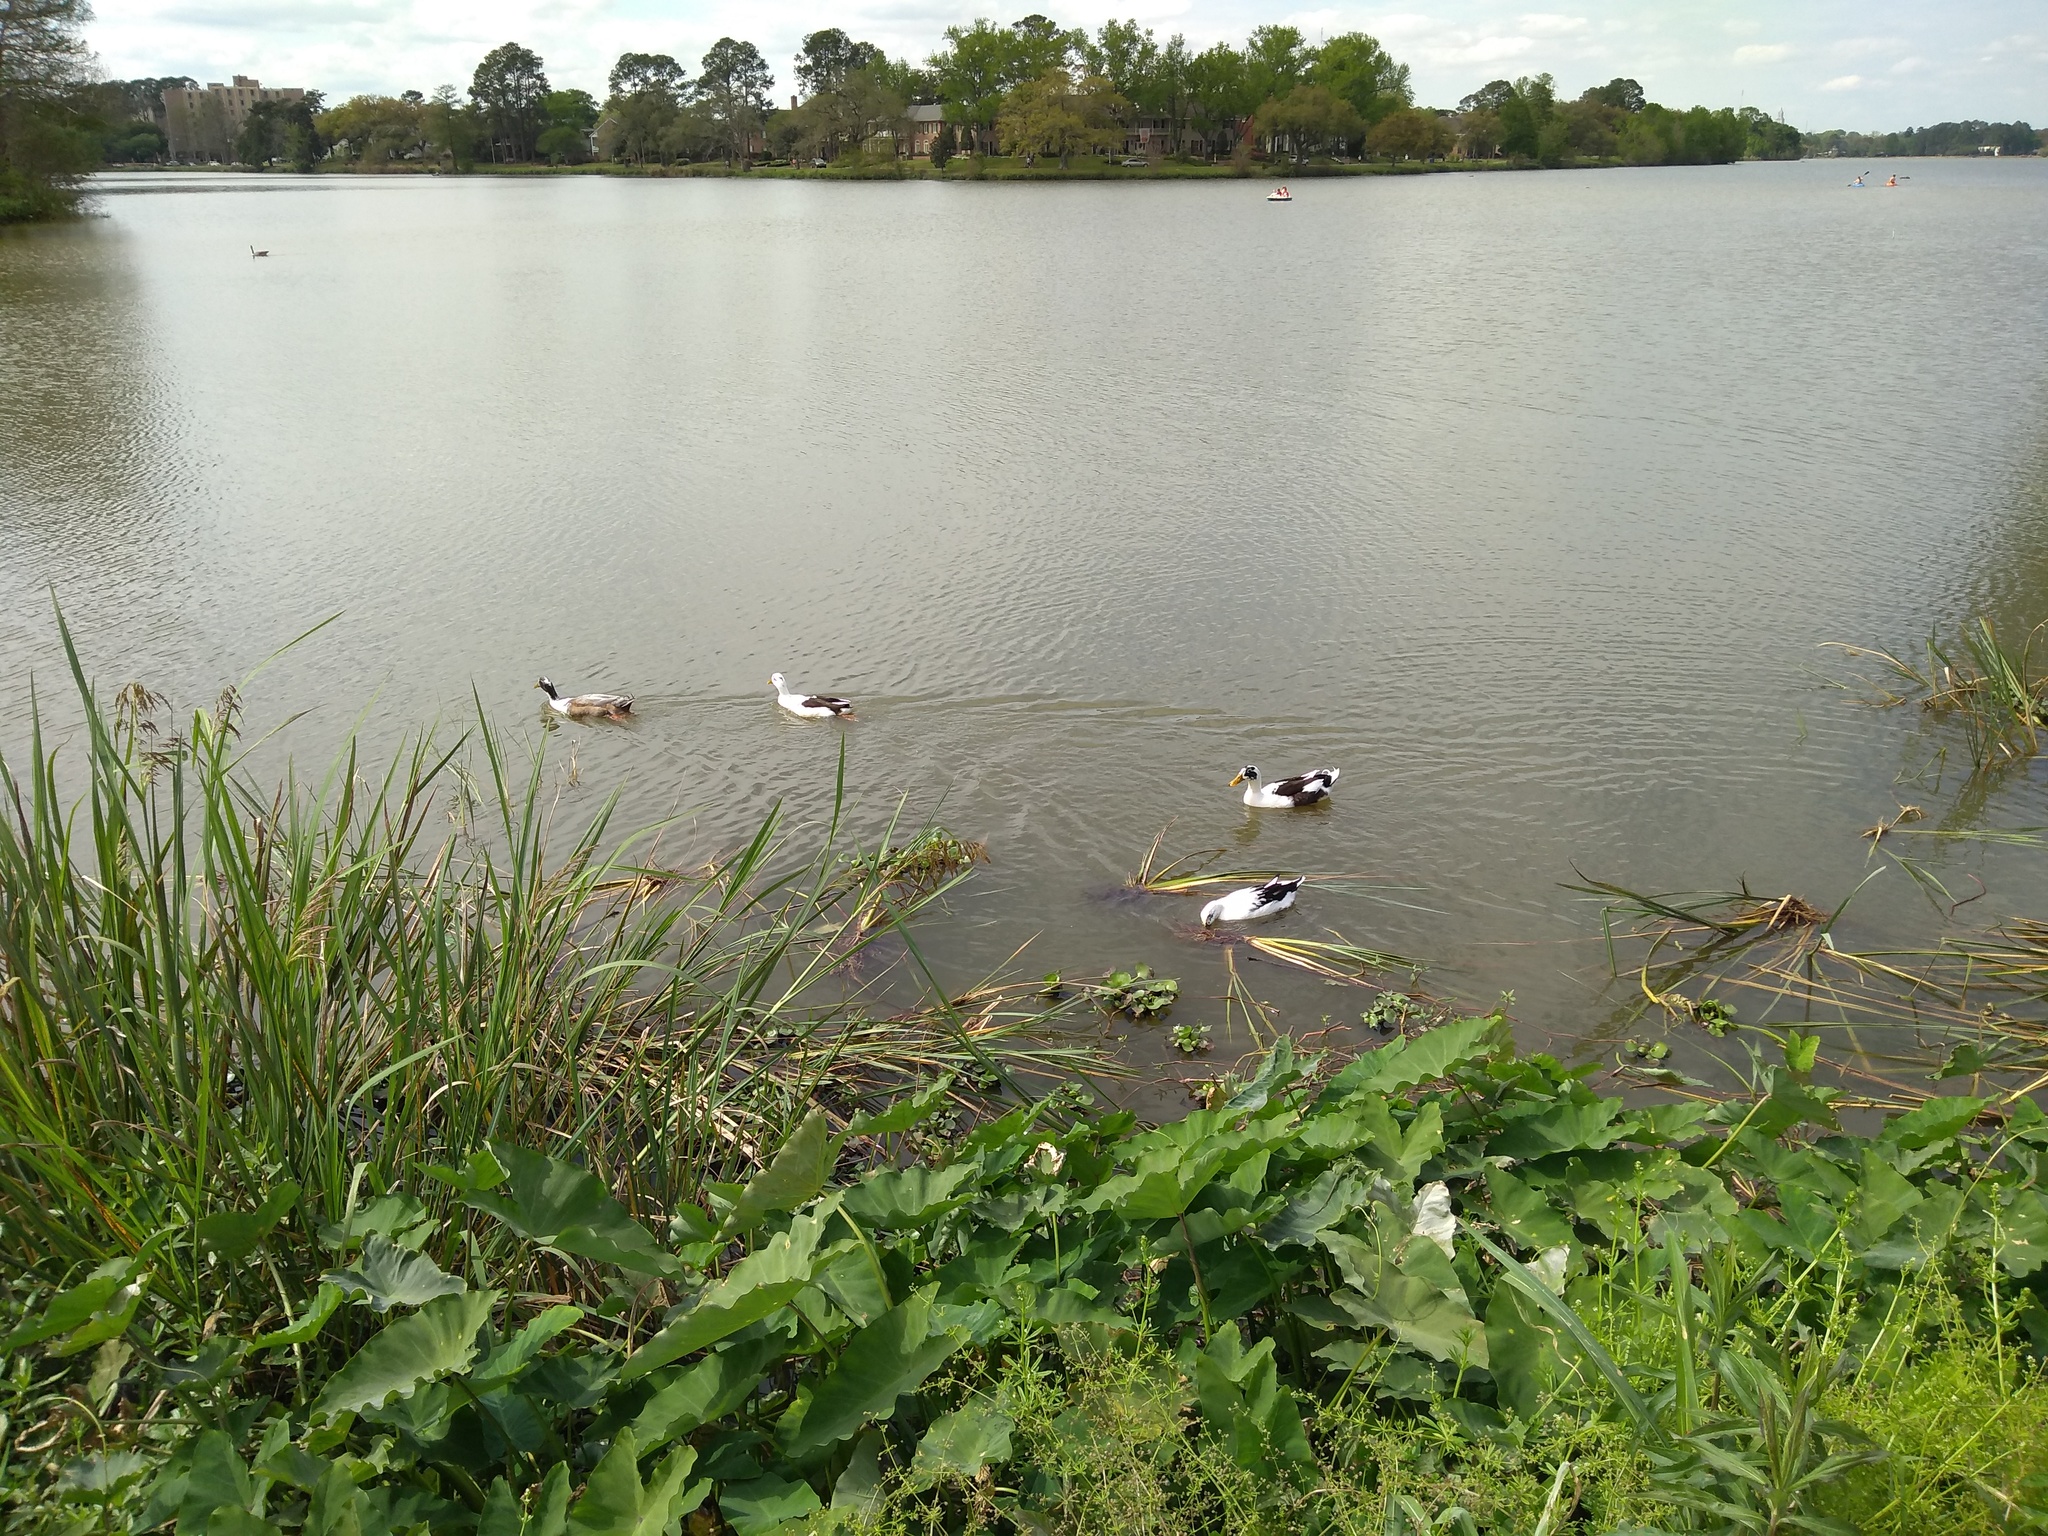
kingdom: Animalia
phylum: Chordata
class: Aves
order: Anseriformes
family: Anatidae
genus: Anas
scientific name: Anas platyrhynchos
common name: Mallard
